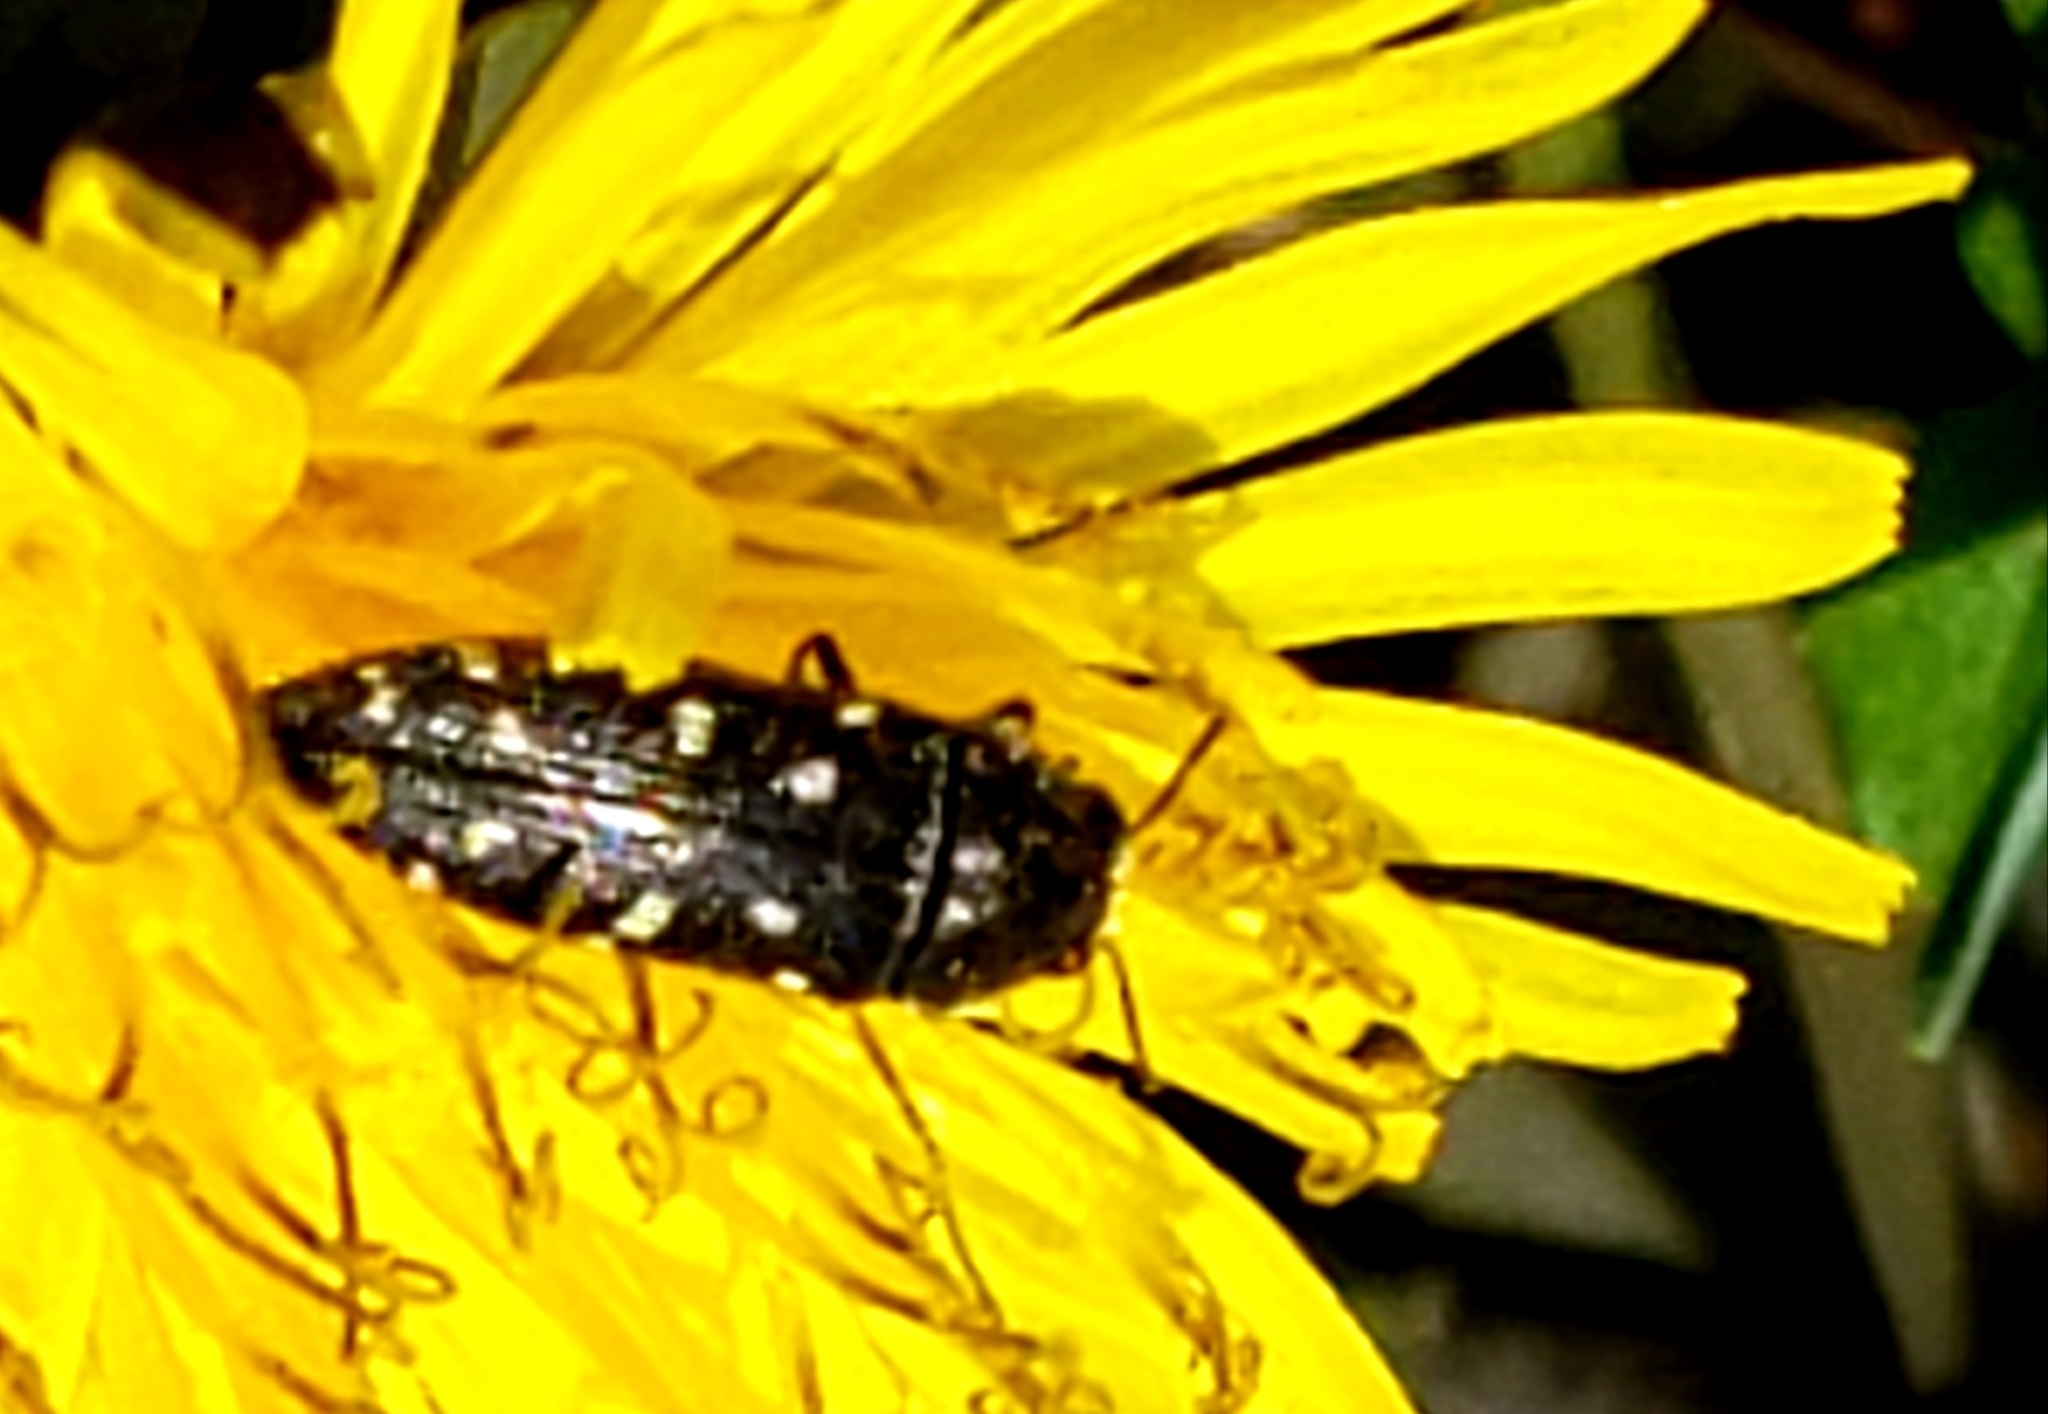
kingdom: Animalia
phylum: Arthropoda
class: Insecta
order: Coleoptera
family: Buprestidae
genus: Acmaeodera
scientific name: Acmaeodera tubulus
